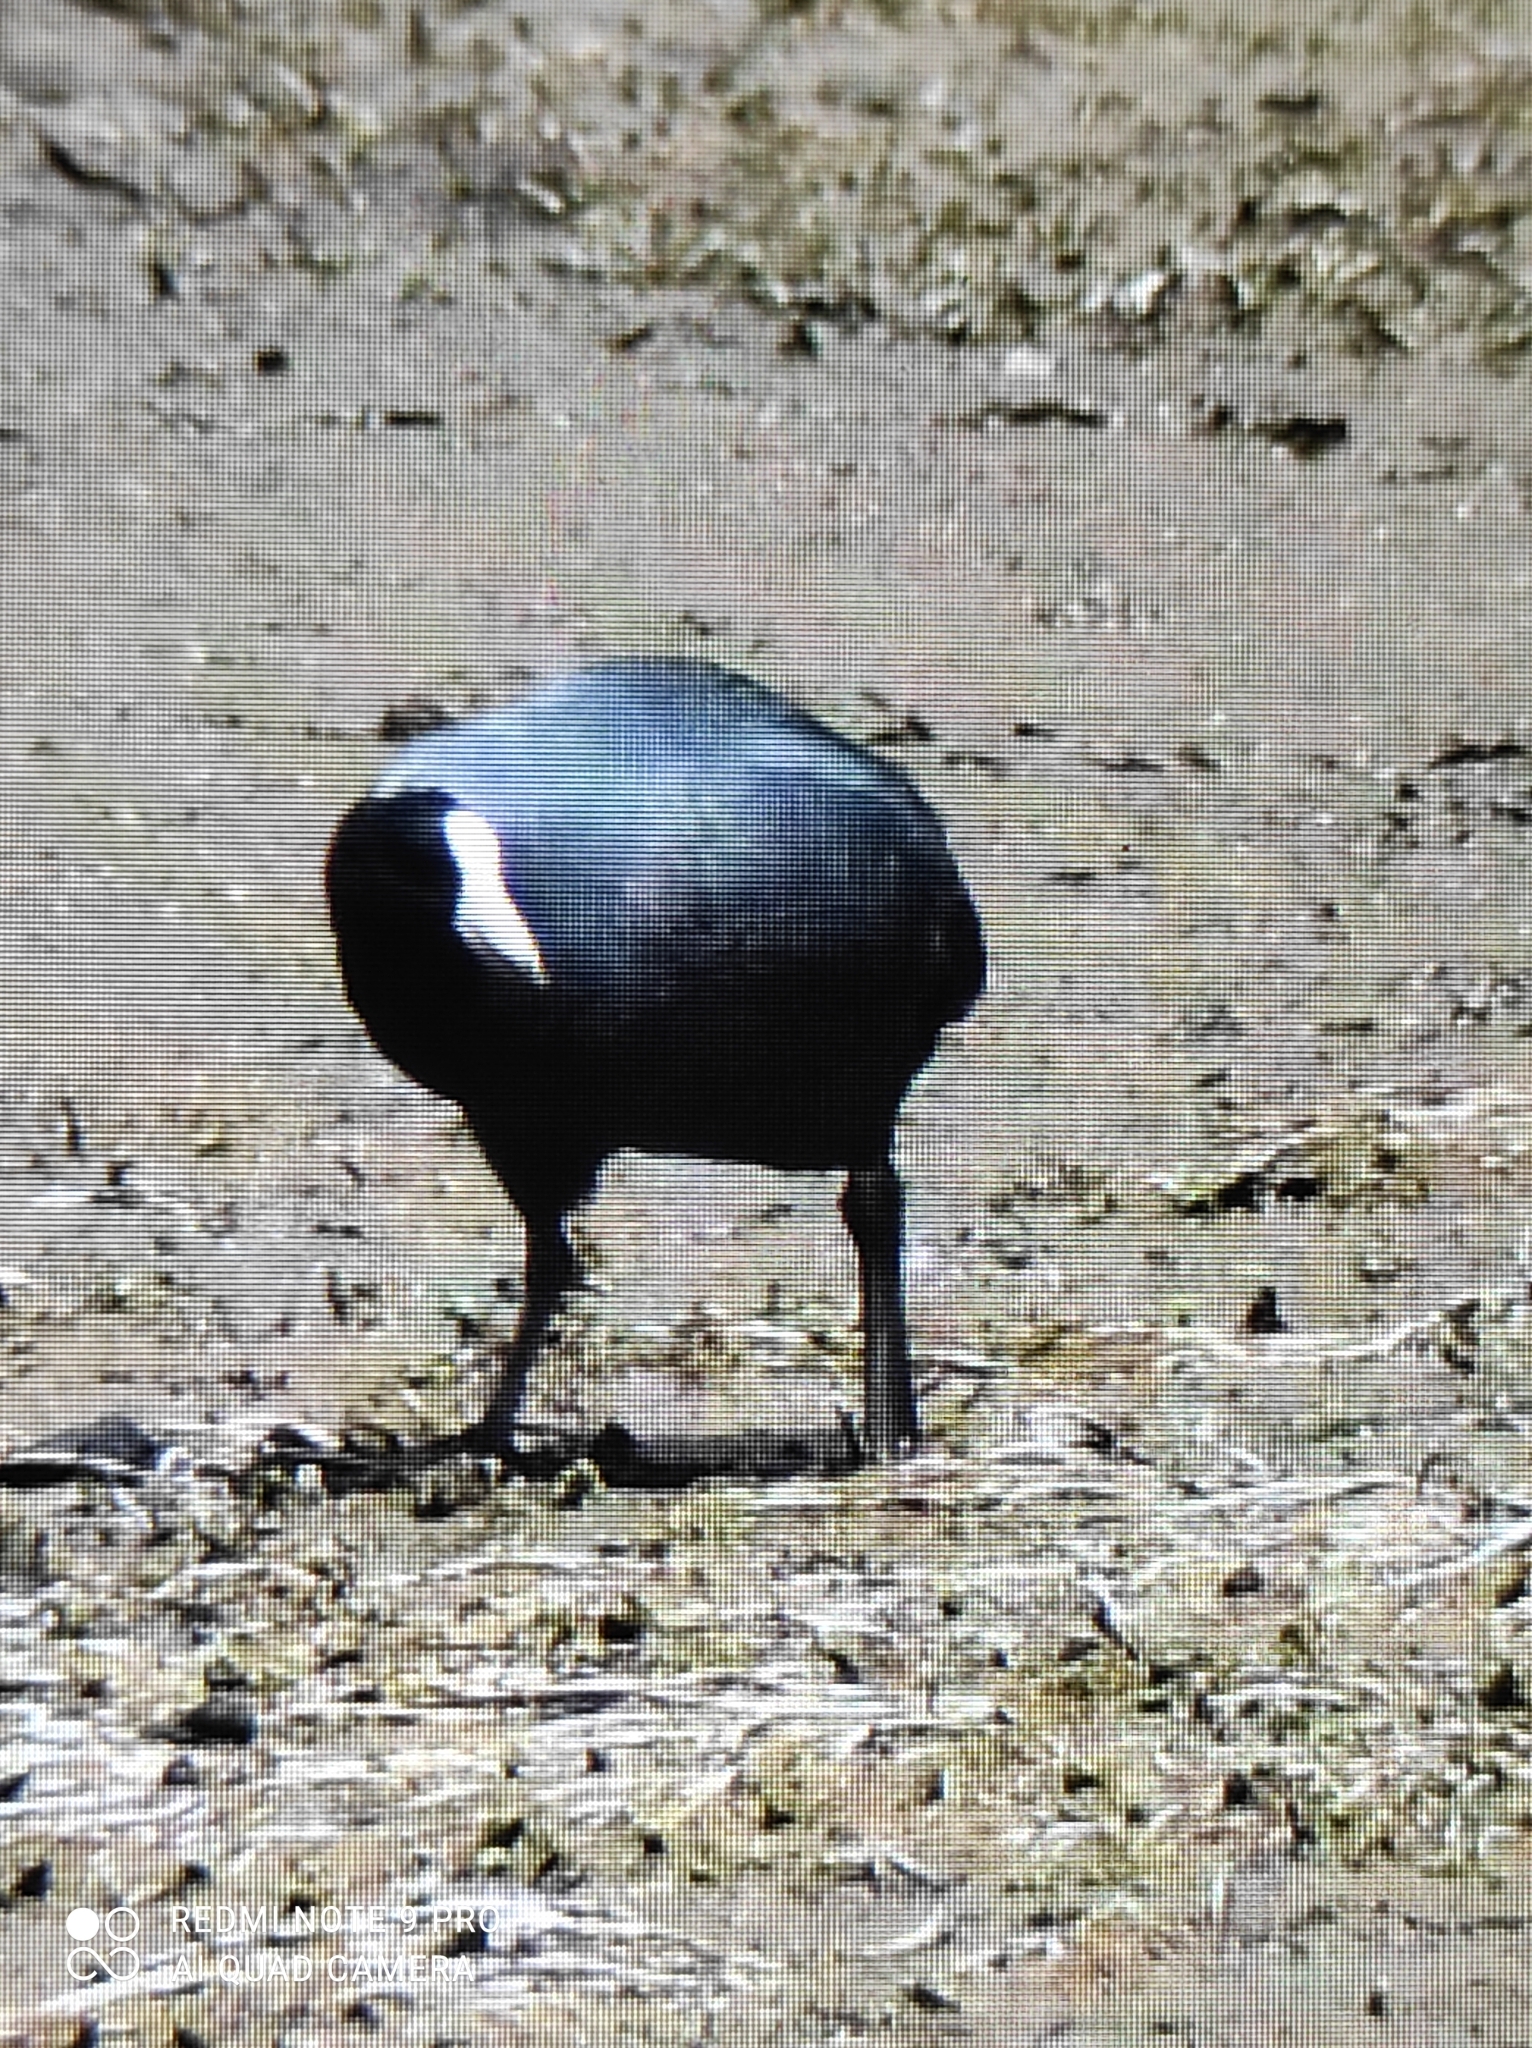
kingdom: Animalia
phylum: Chordata
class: Aves
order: Gruiformes
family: Rallidae
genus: Fulica
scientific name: Fulica ardesiaca
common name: Andean coot
